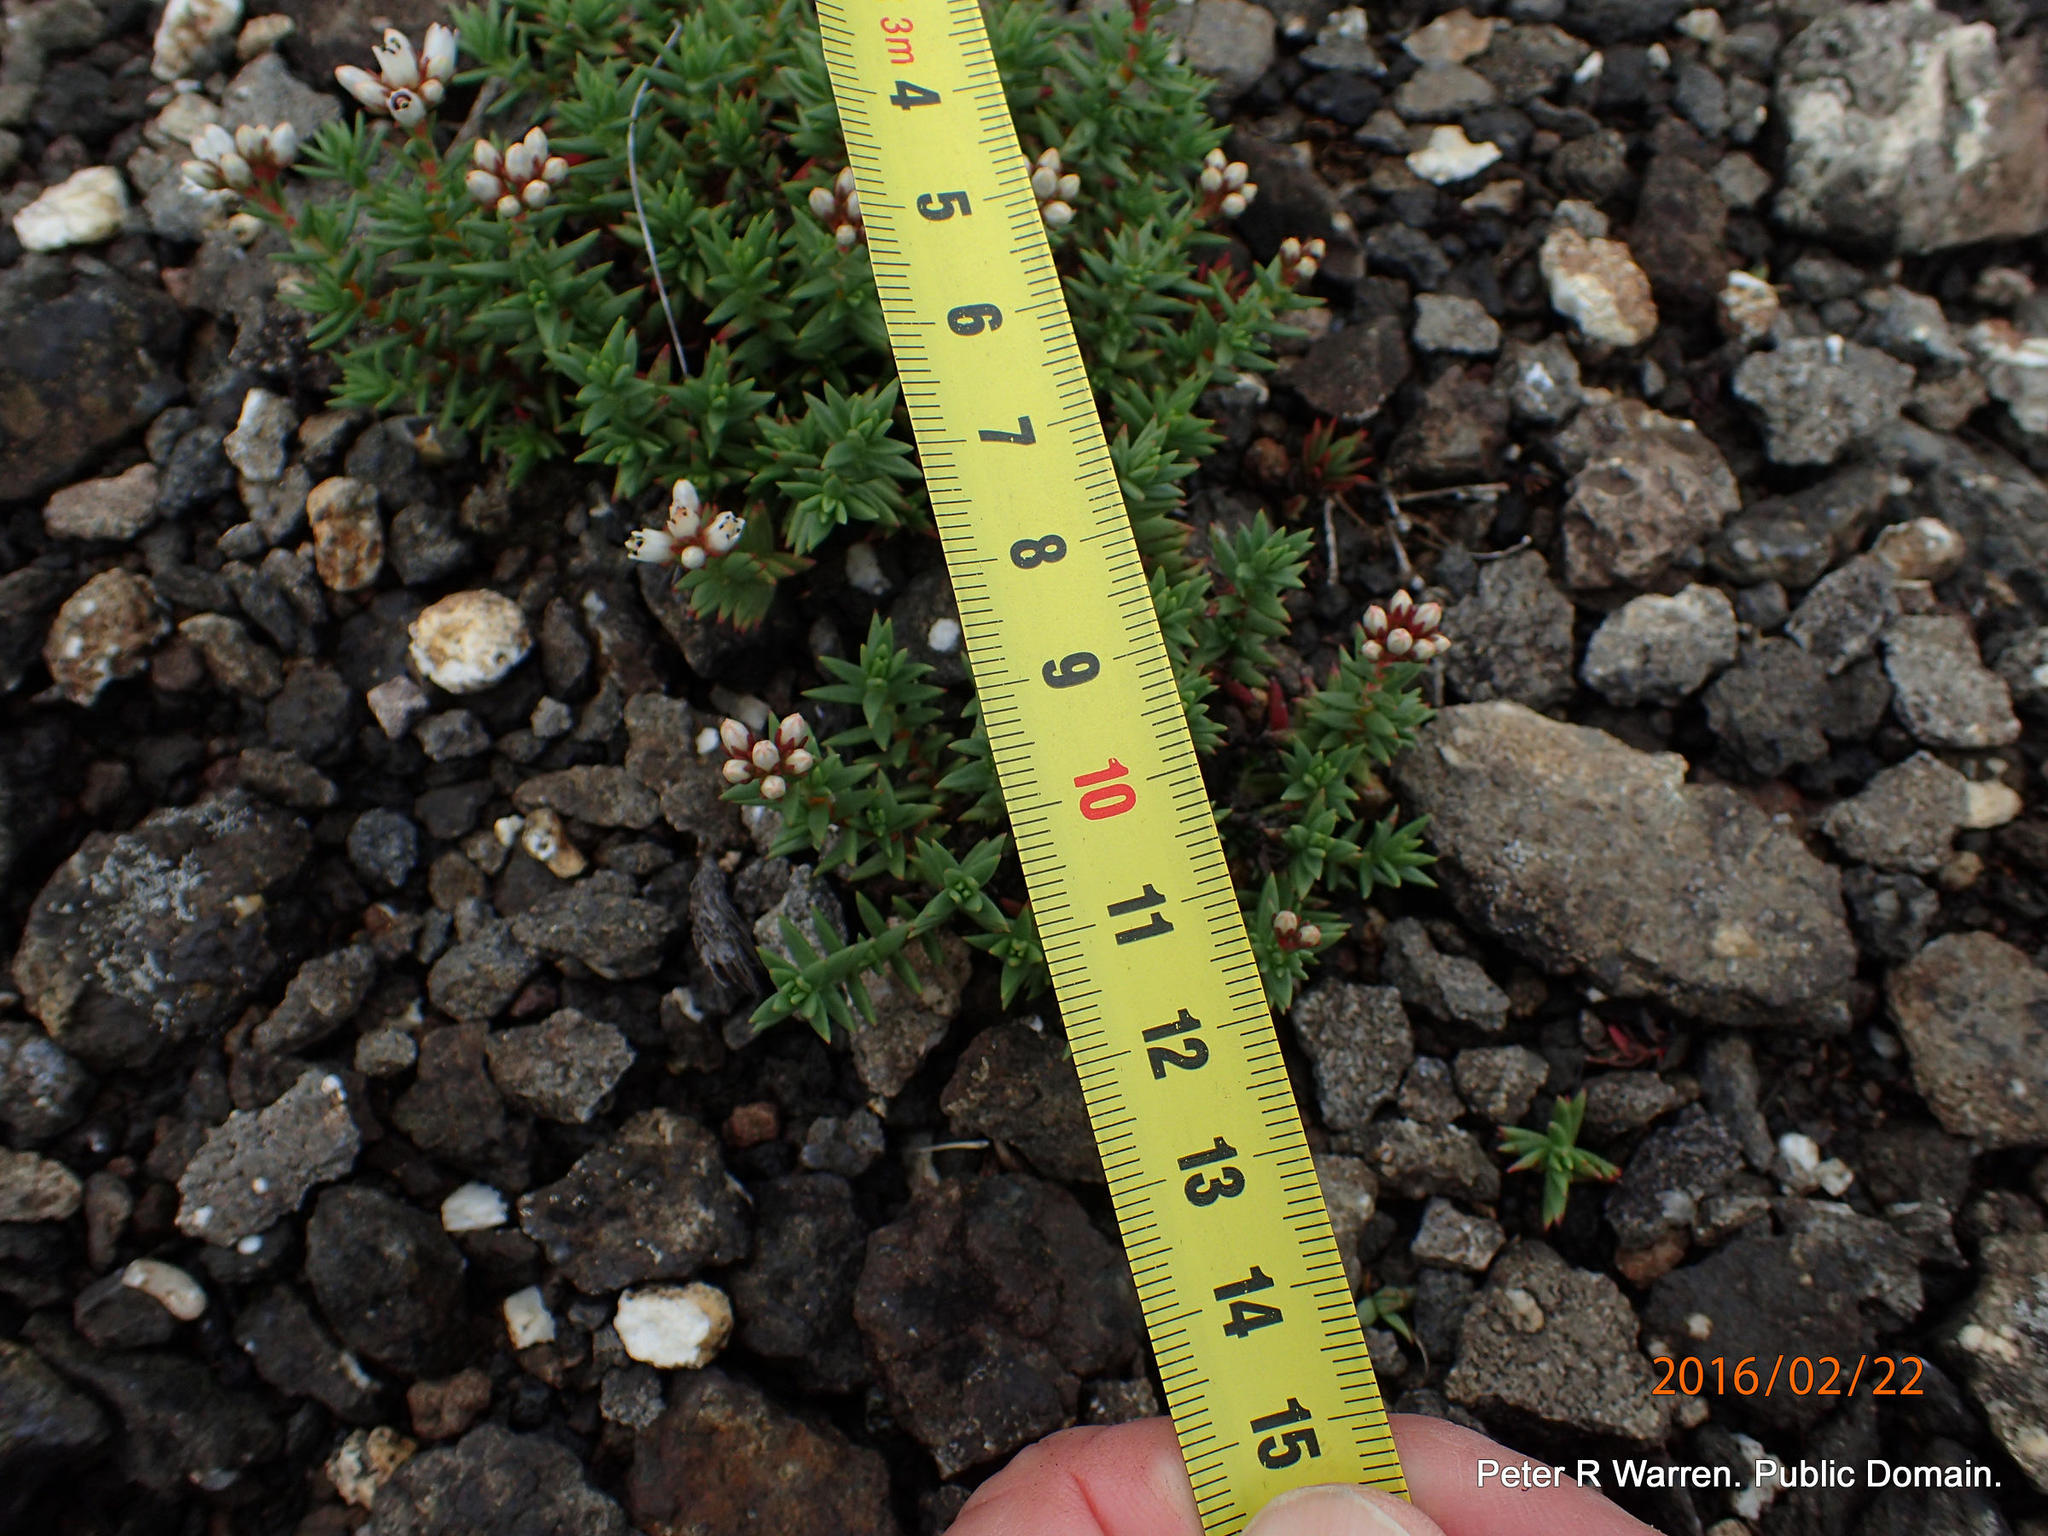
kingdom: Plantae
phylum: Tracheophyta
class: Magnoliopsida
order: Saxifragales
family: Crassulaceae
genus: Crassula
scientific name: Crassula dependens
